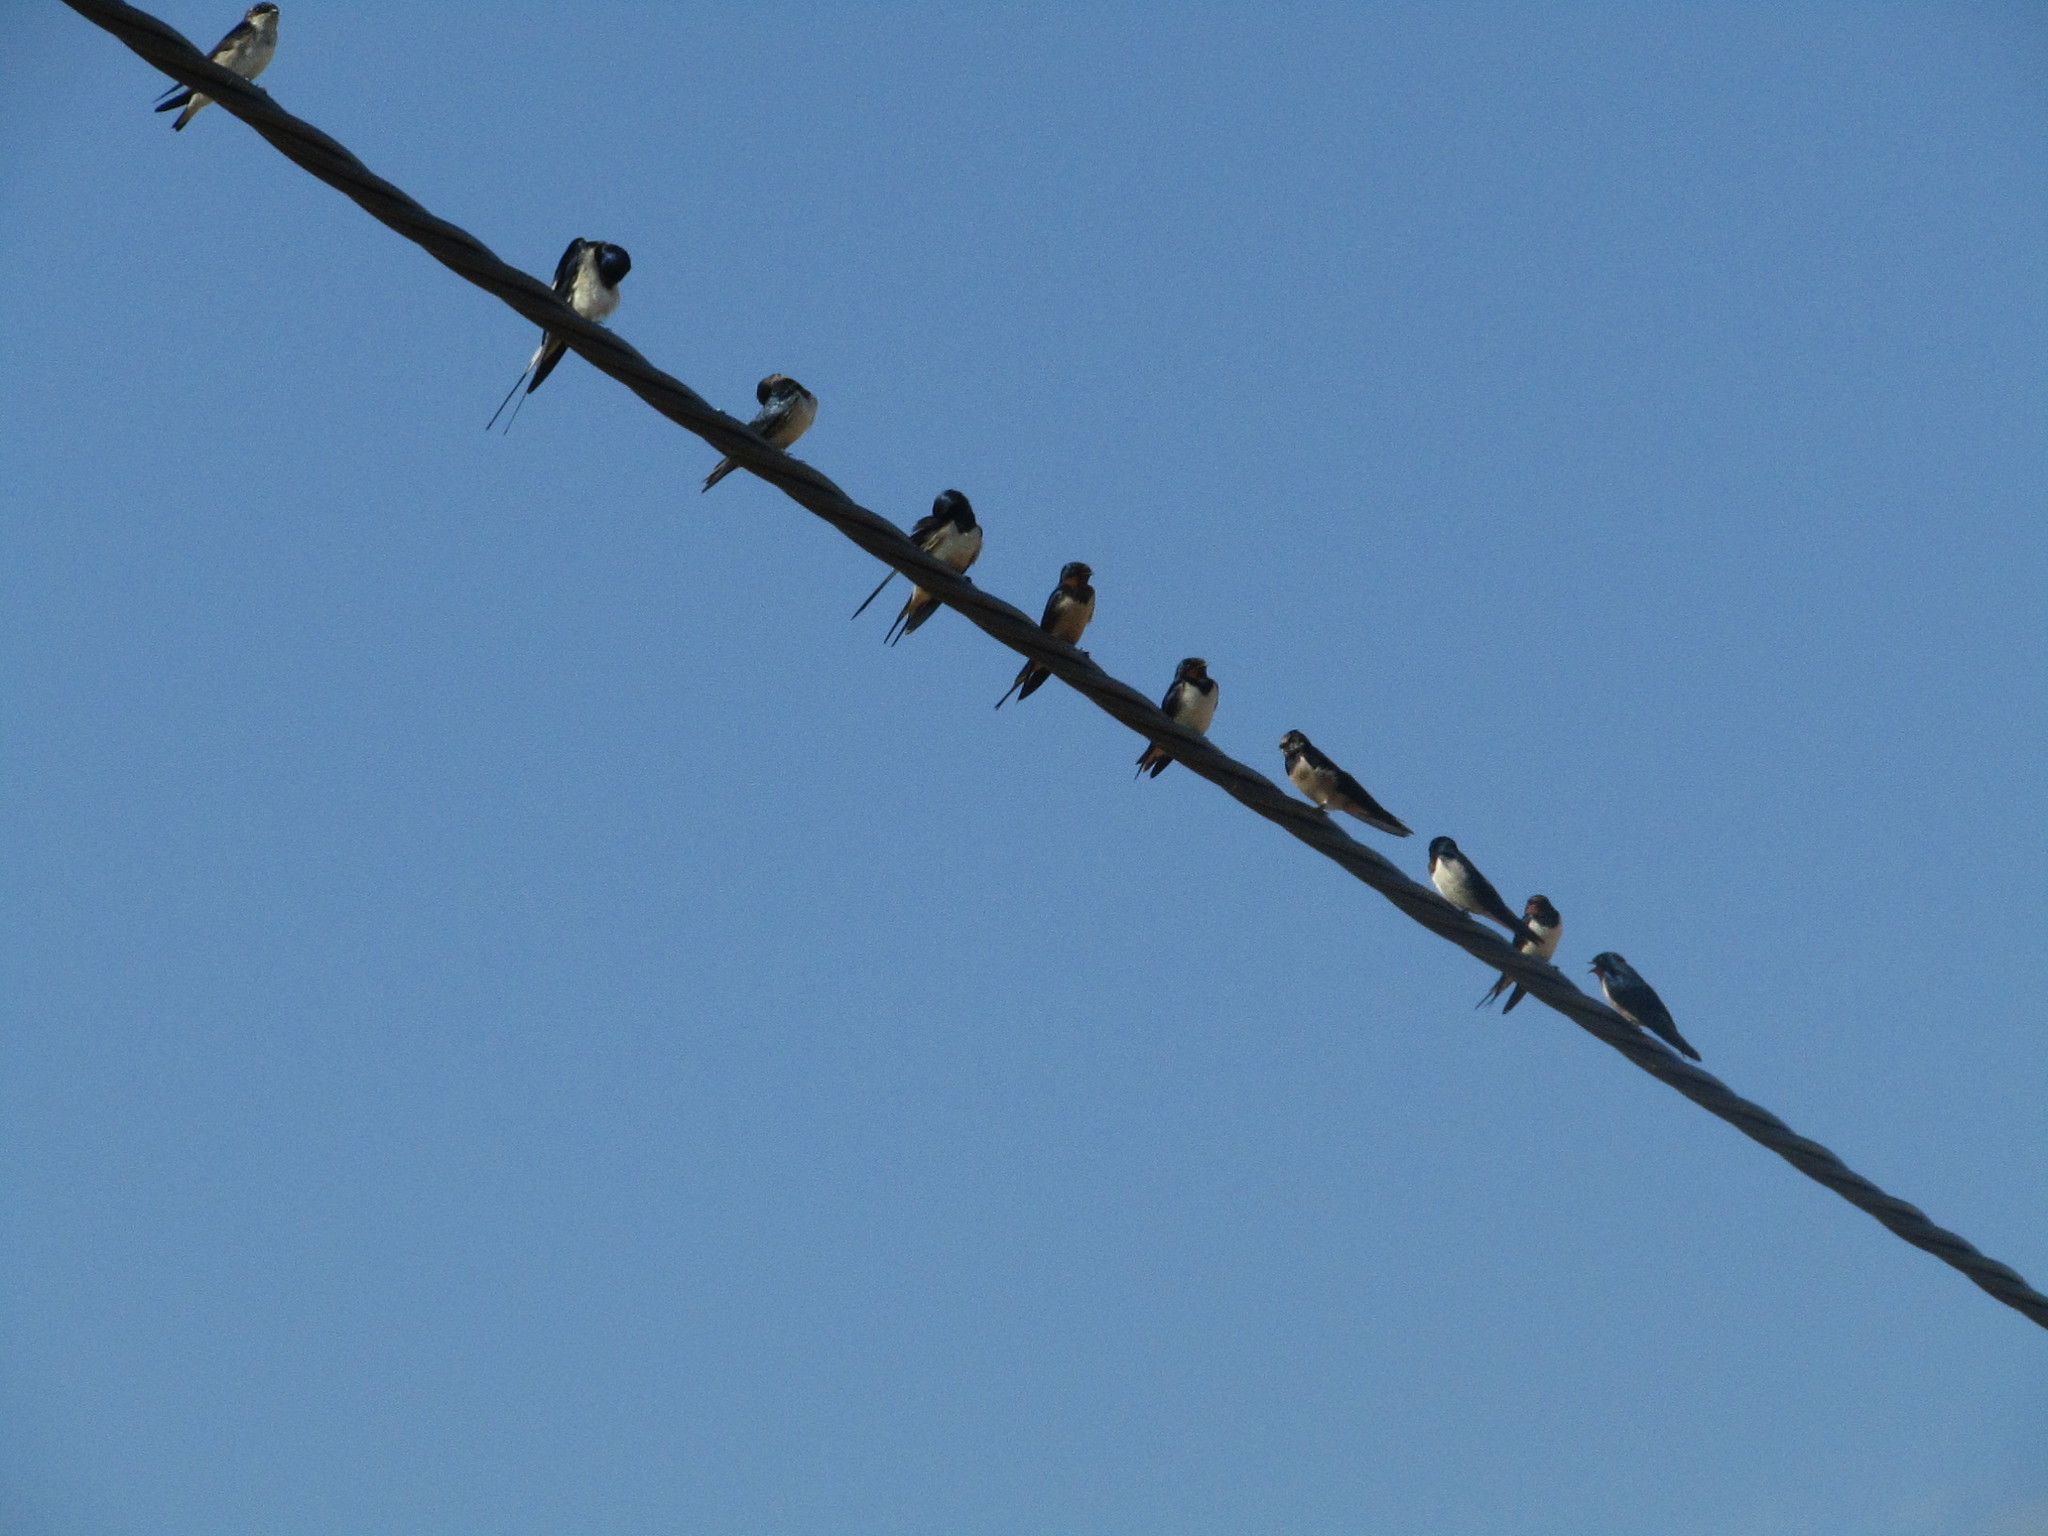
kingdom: Animalia
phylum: Chordata
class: Aves
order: Passeriformes
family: Hirundinidae
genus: Hirundo
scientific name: Hirundo rustica
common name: Barn swallow
